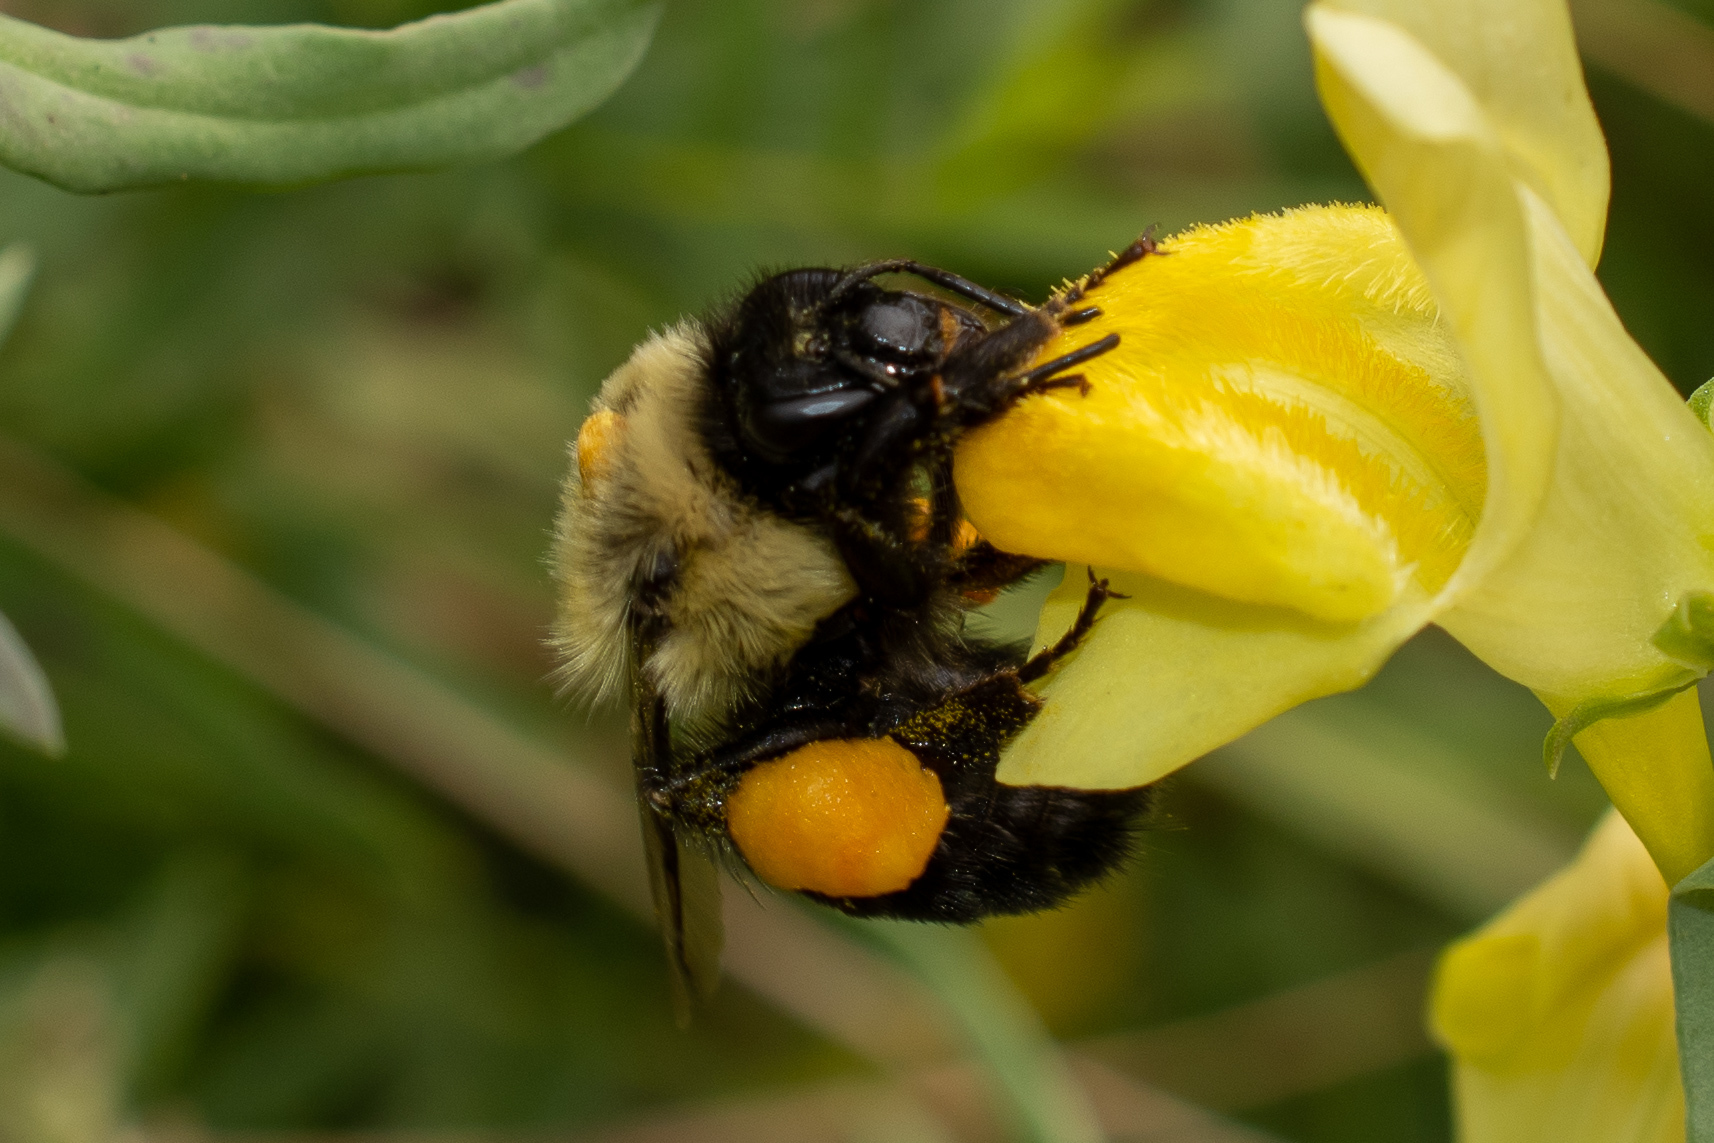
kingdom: Animalia
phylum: Arthropoda
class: Insecta
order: Hymenoptera
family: Apidae
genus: Bombus
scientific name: Bombus impatiens
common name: Common eastern bumble bee
